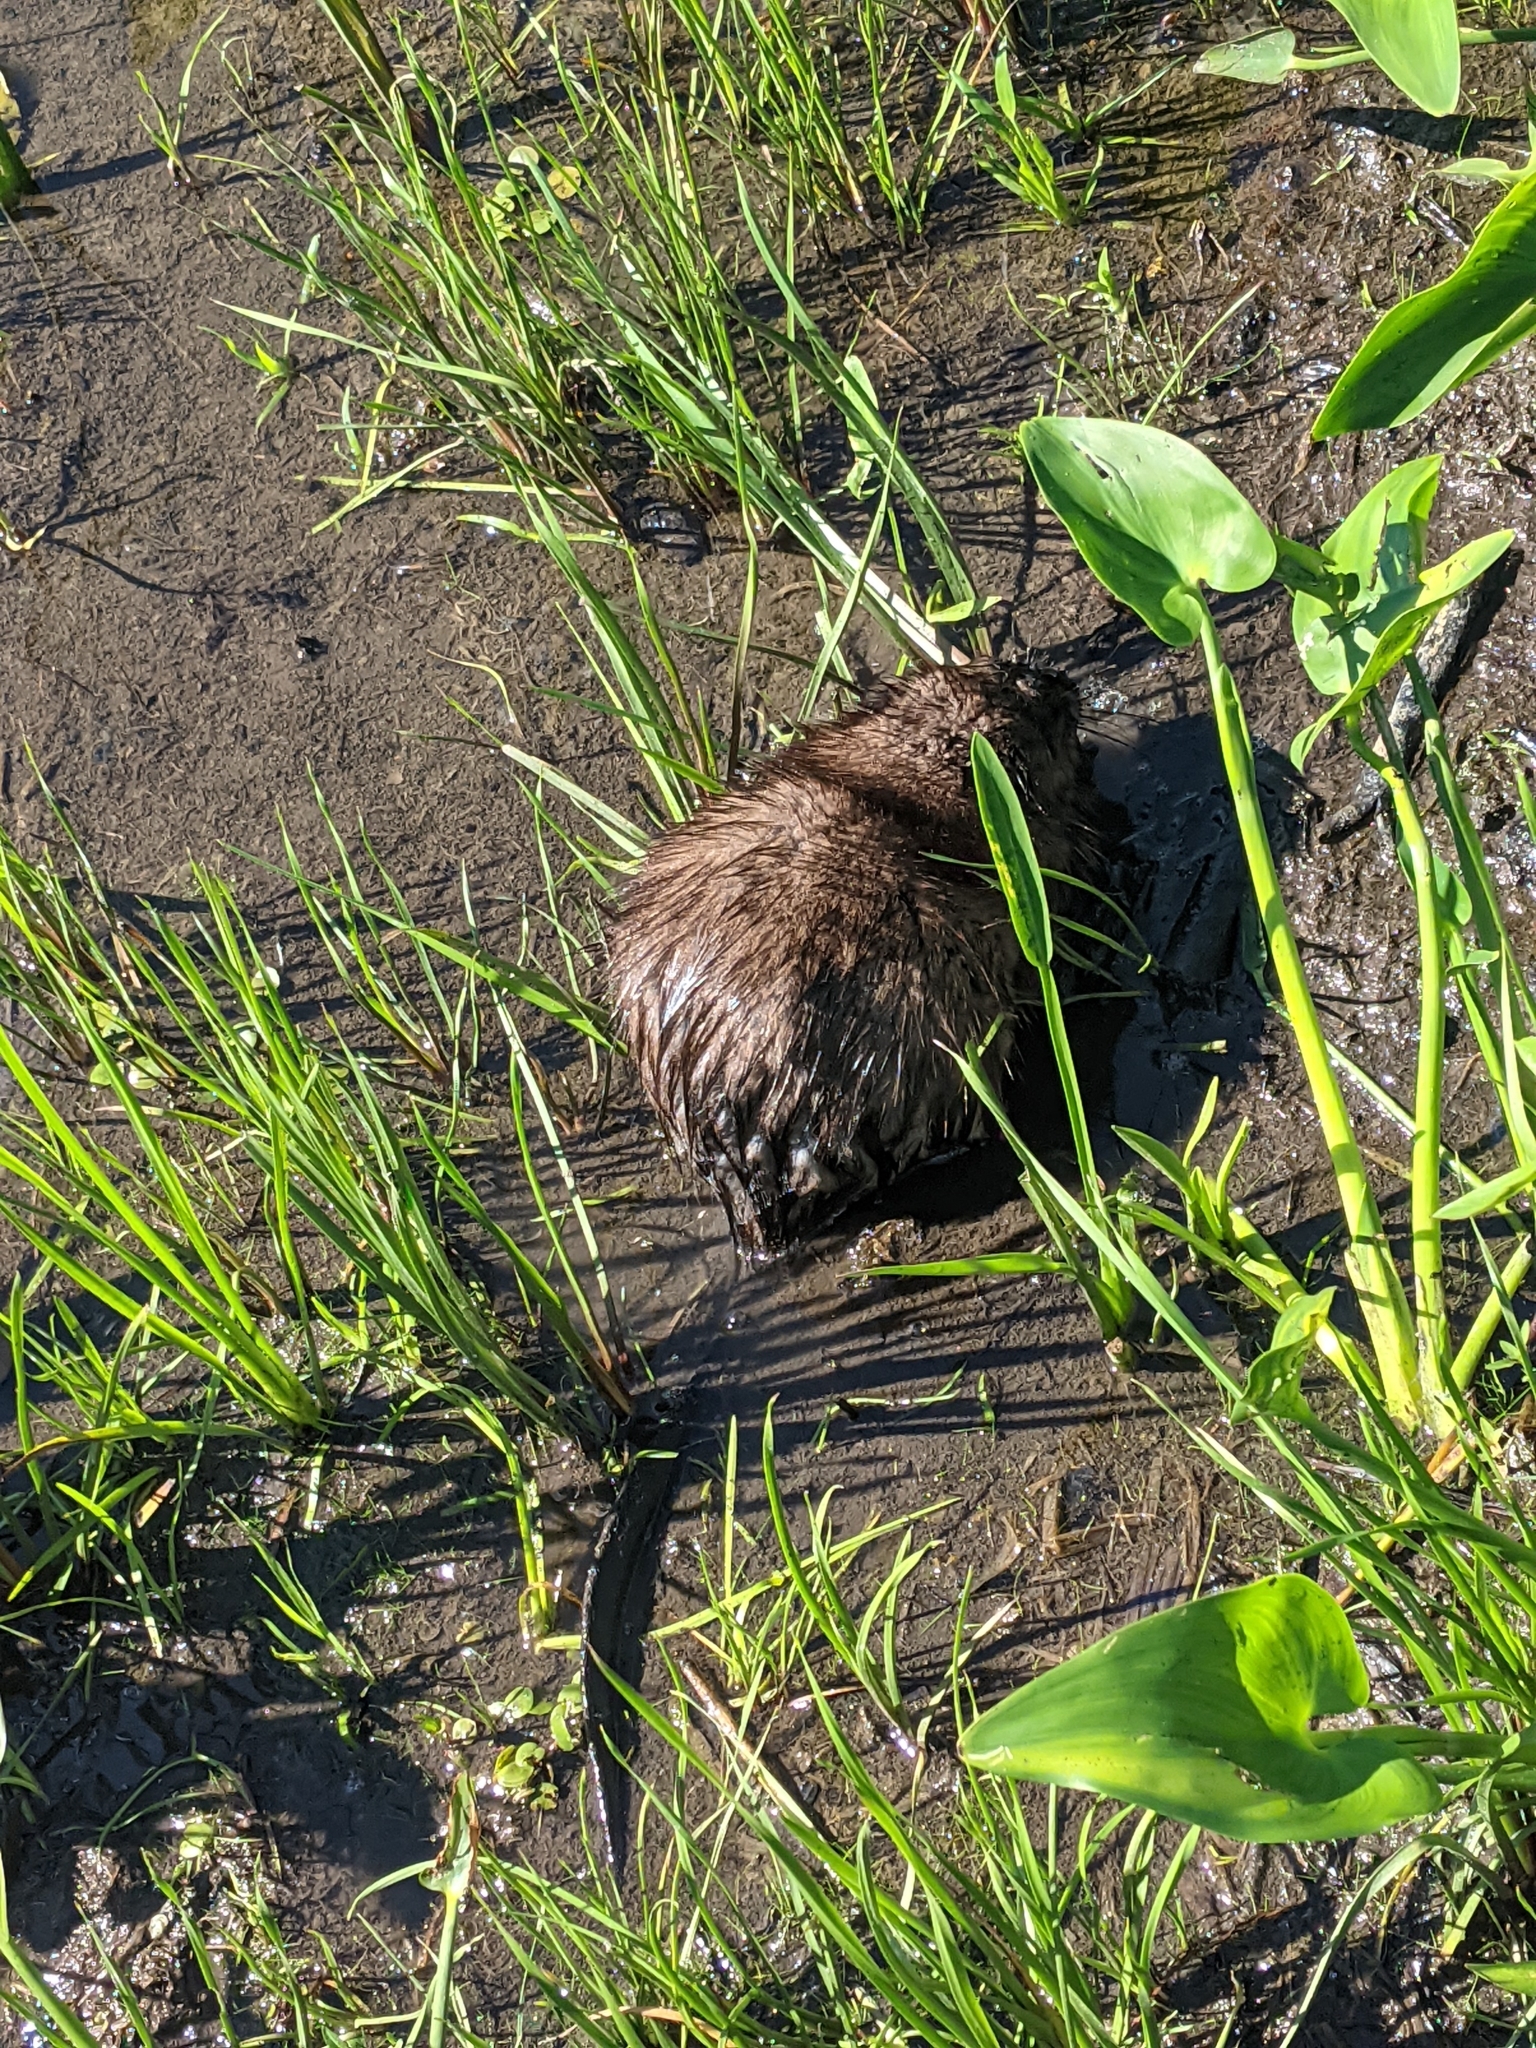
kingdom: Animalia
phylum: Chordata
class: Mammalia
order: Rodentia
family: Cricetidae
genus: Ondatra
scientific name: Ondatra zibethicus
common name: Muskrat
